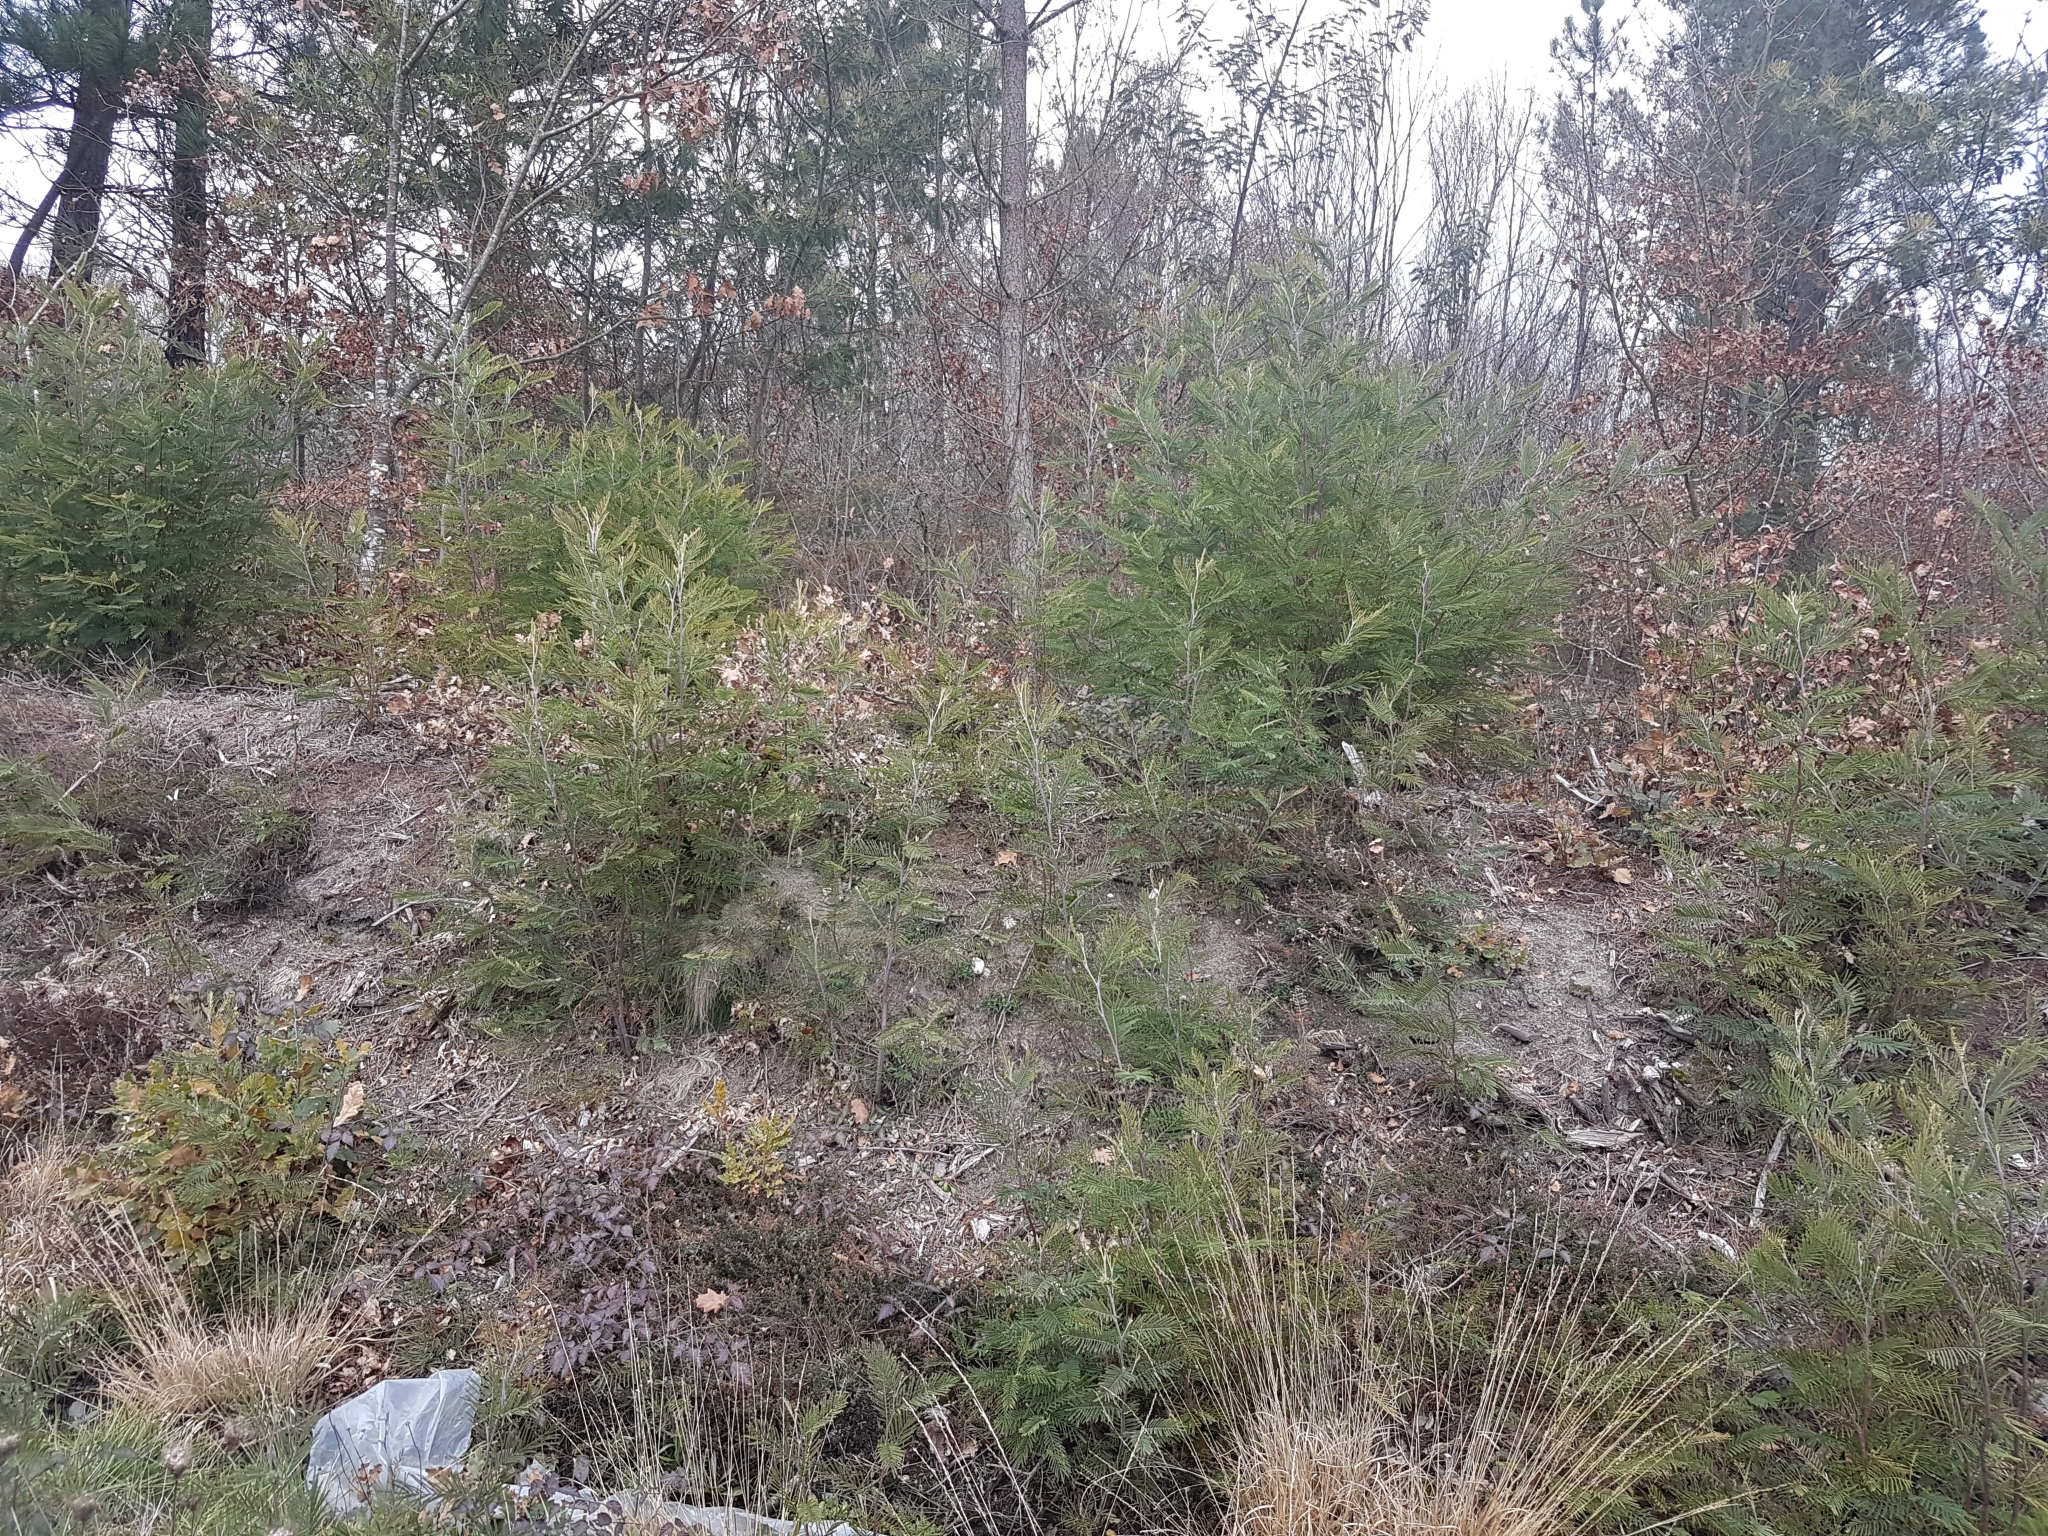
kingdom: Plantae
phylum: Tracheophyta
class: Magnoliopsida
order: Fabales
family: Fabaceae
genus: Acacia
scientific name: Acacia dealbata
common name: Silver wattle
